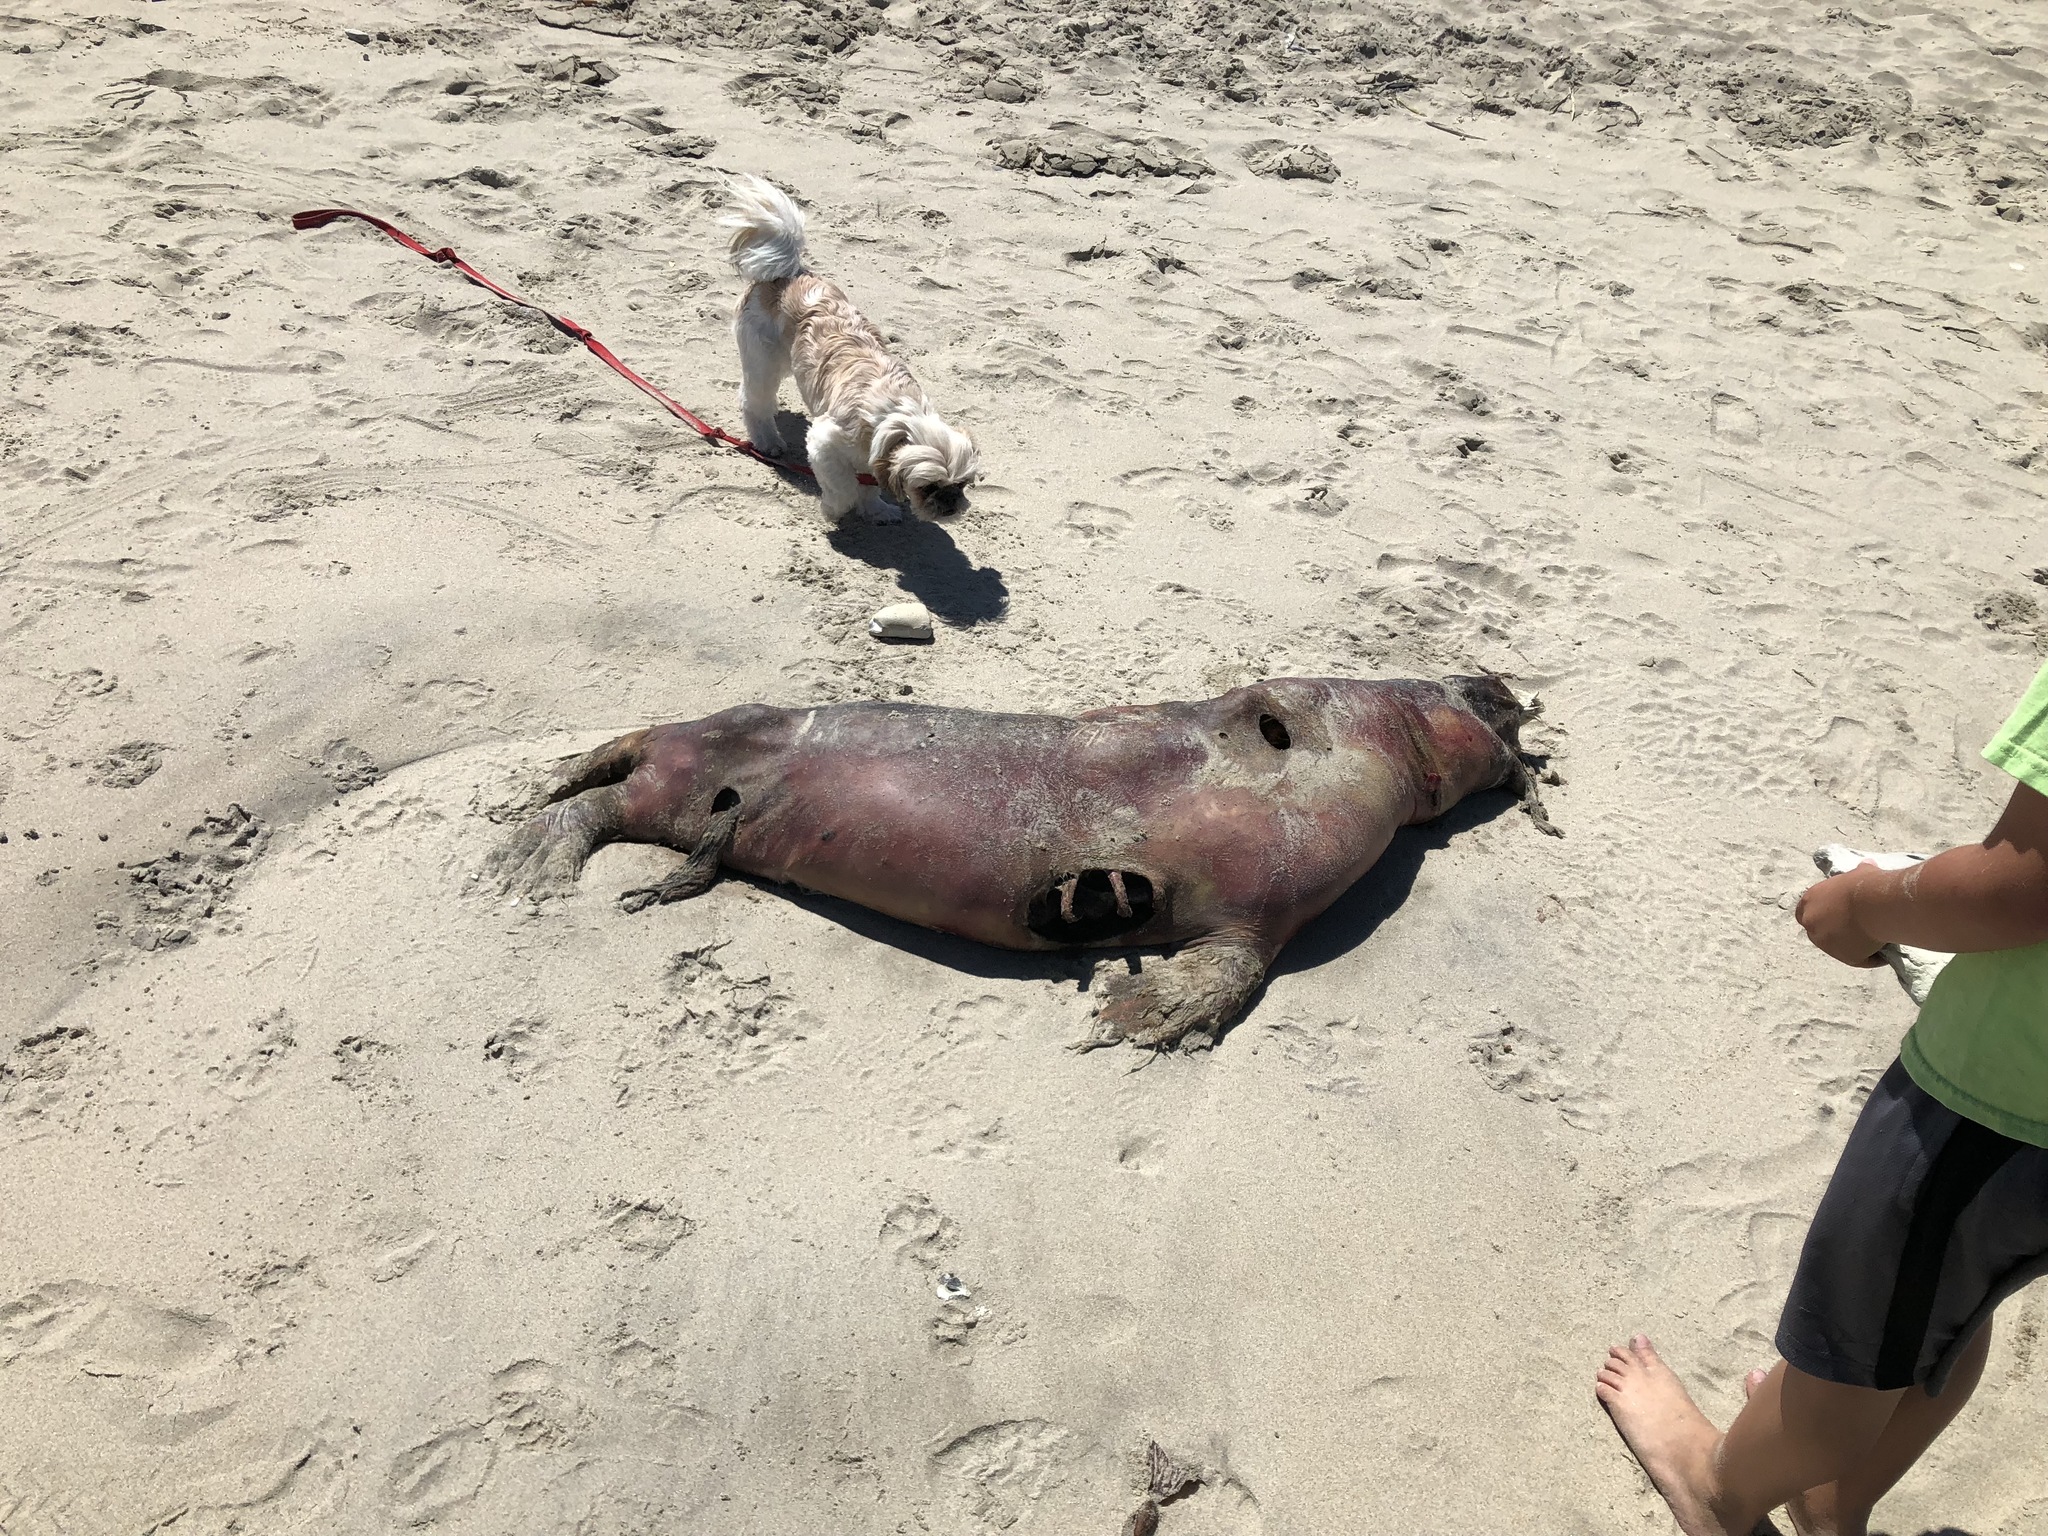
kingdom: Animalia
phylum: Chordata
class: Mammalia
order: Carnivora
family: Otariidae
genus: Zalophus
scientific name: Zalophus californianus
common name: California sea lion
